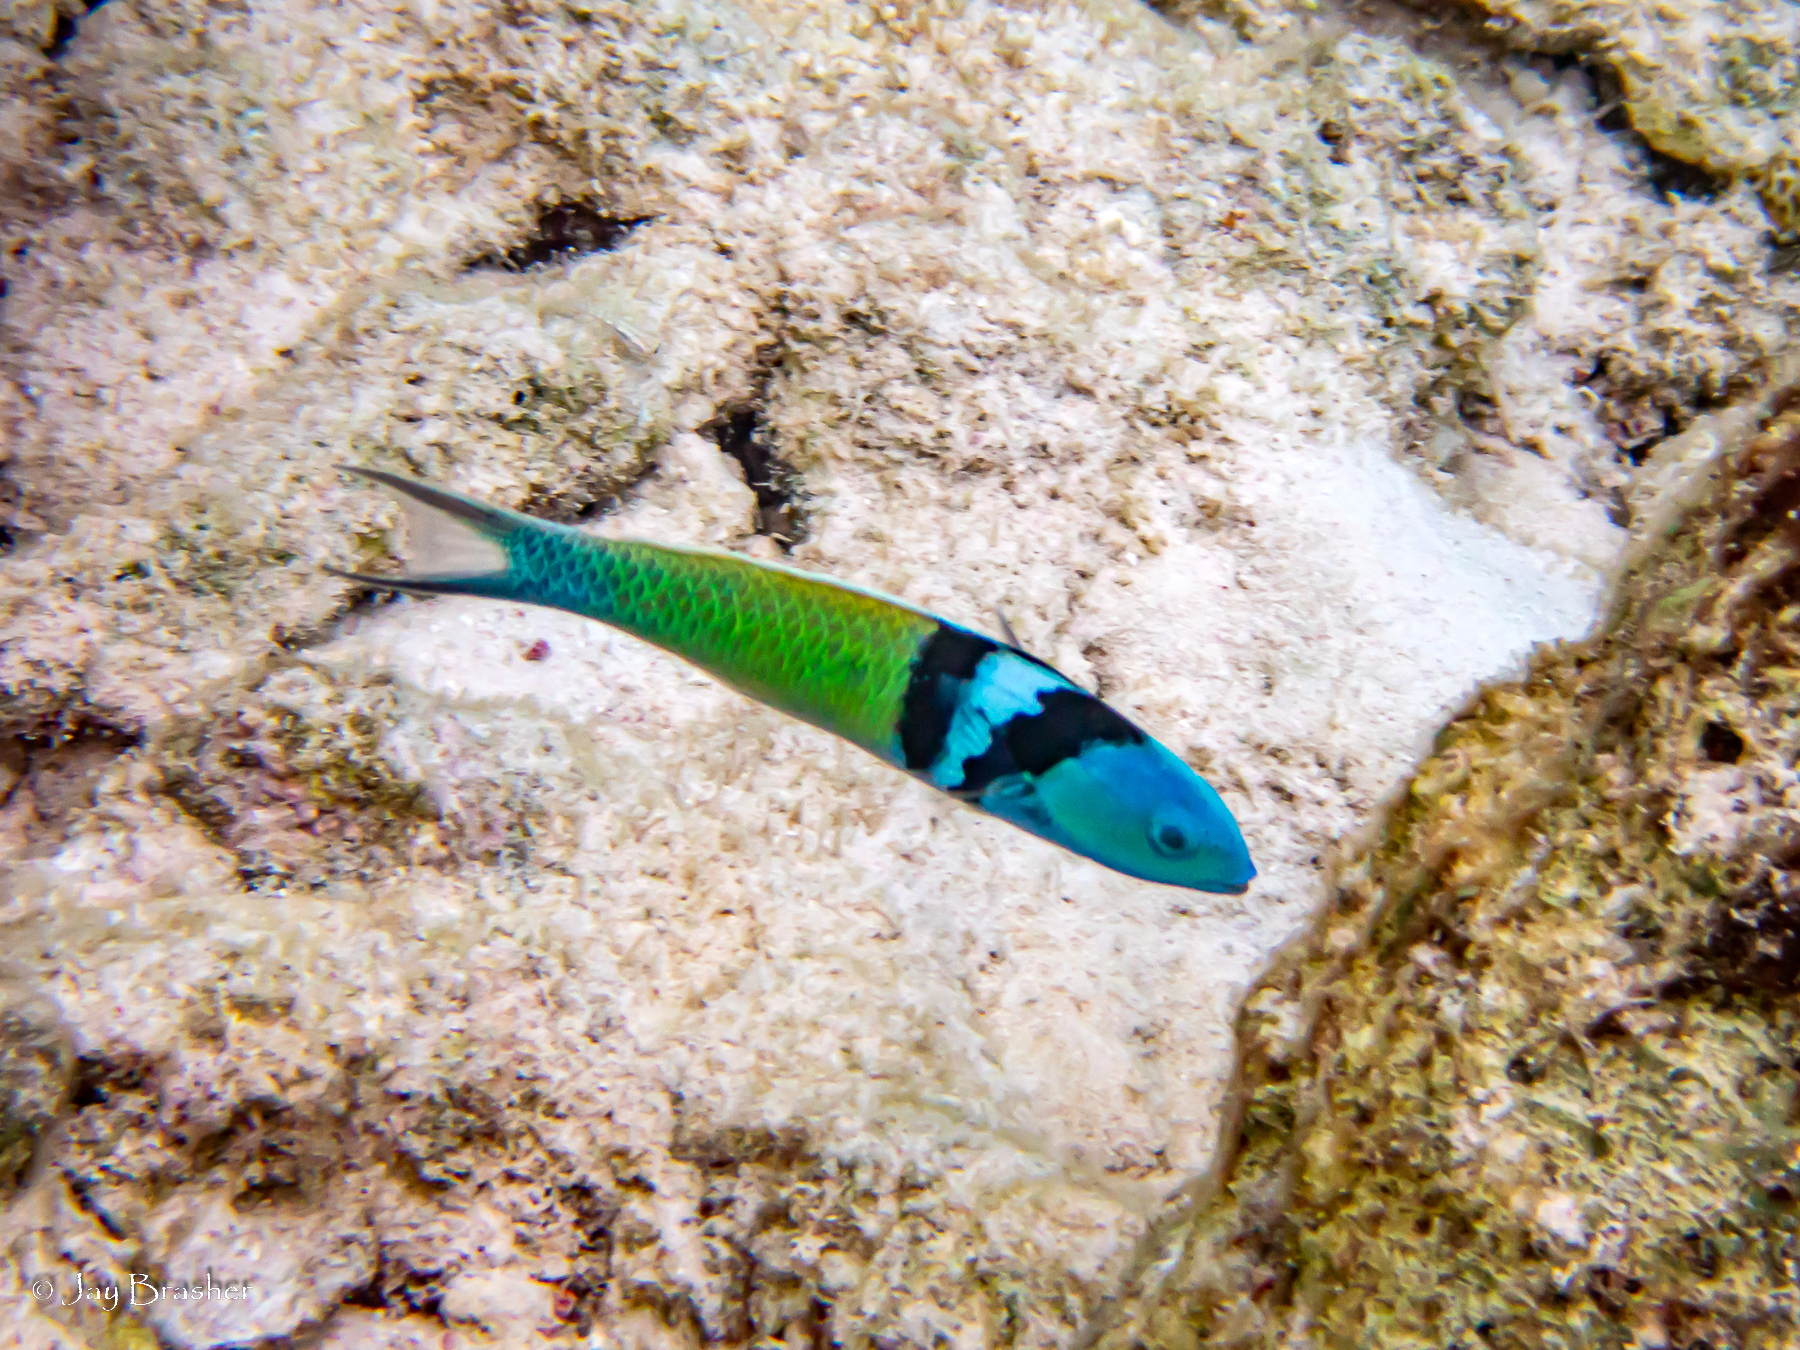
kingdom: Animalia
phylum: Chordata
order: Perciformes
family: Labridae
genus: Thalassoma
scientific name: Thalassoma bifasciatum
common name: Bluehead wrasse
